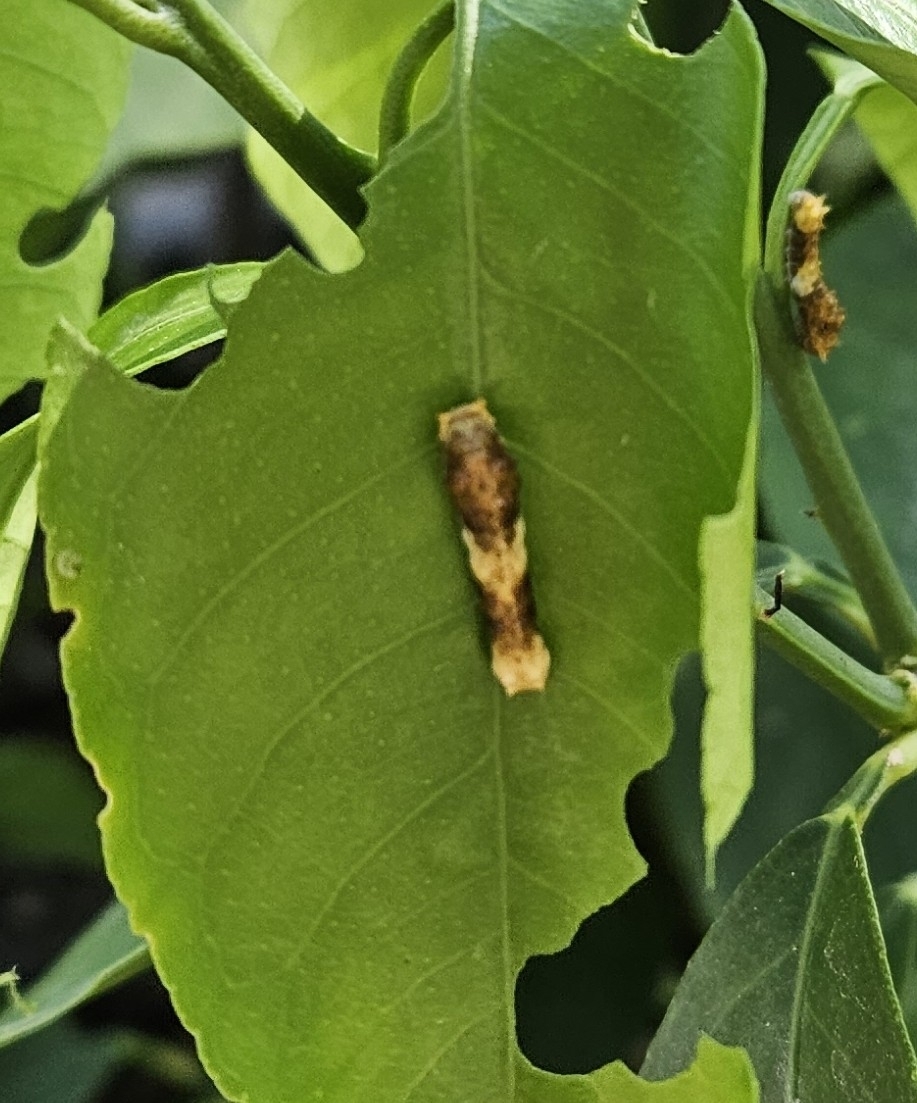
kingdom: Animalia
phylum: Arthropoda
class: Insecta
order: Lepidoptera
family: Papilionidae
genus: Papilio
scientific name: Papilio rumiko
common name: Western giant swallowtail
